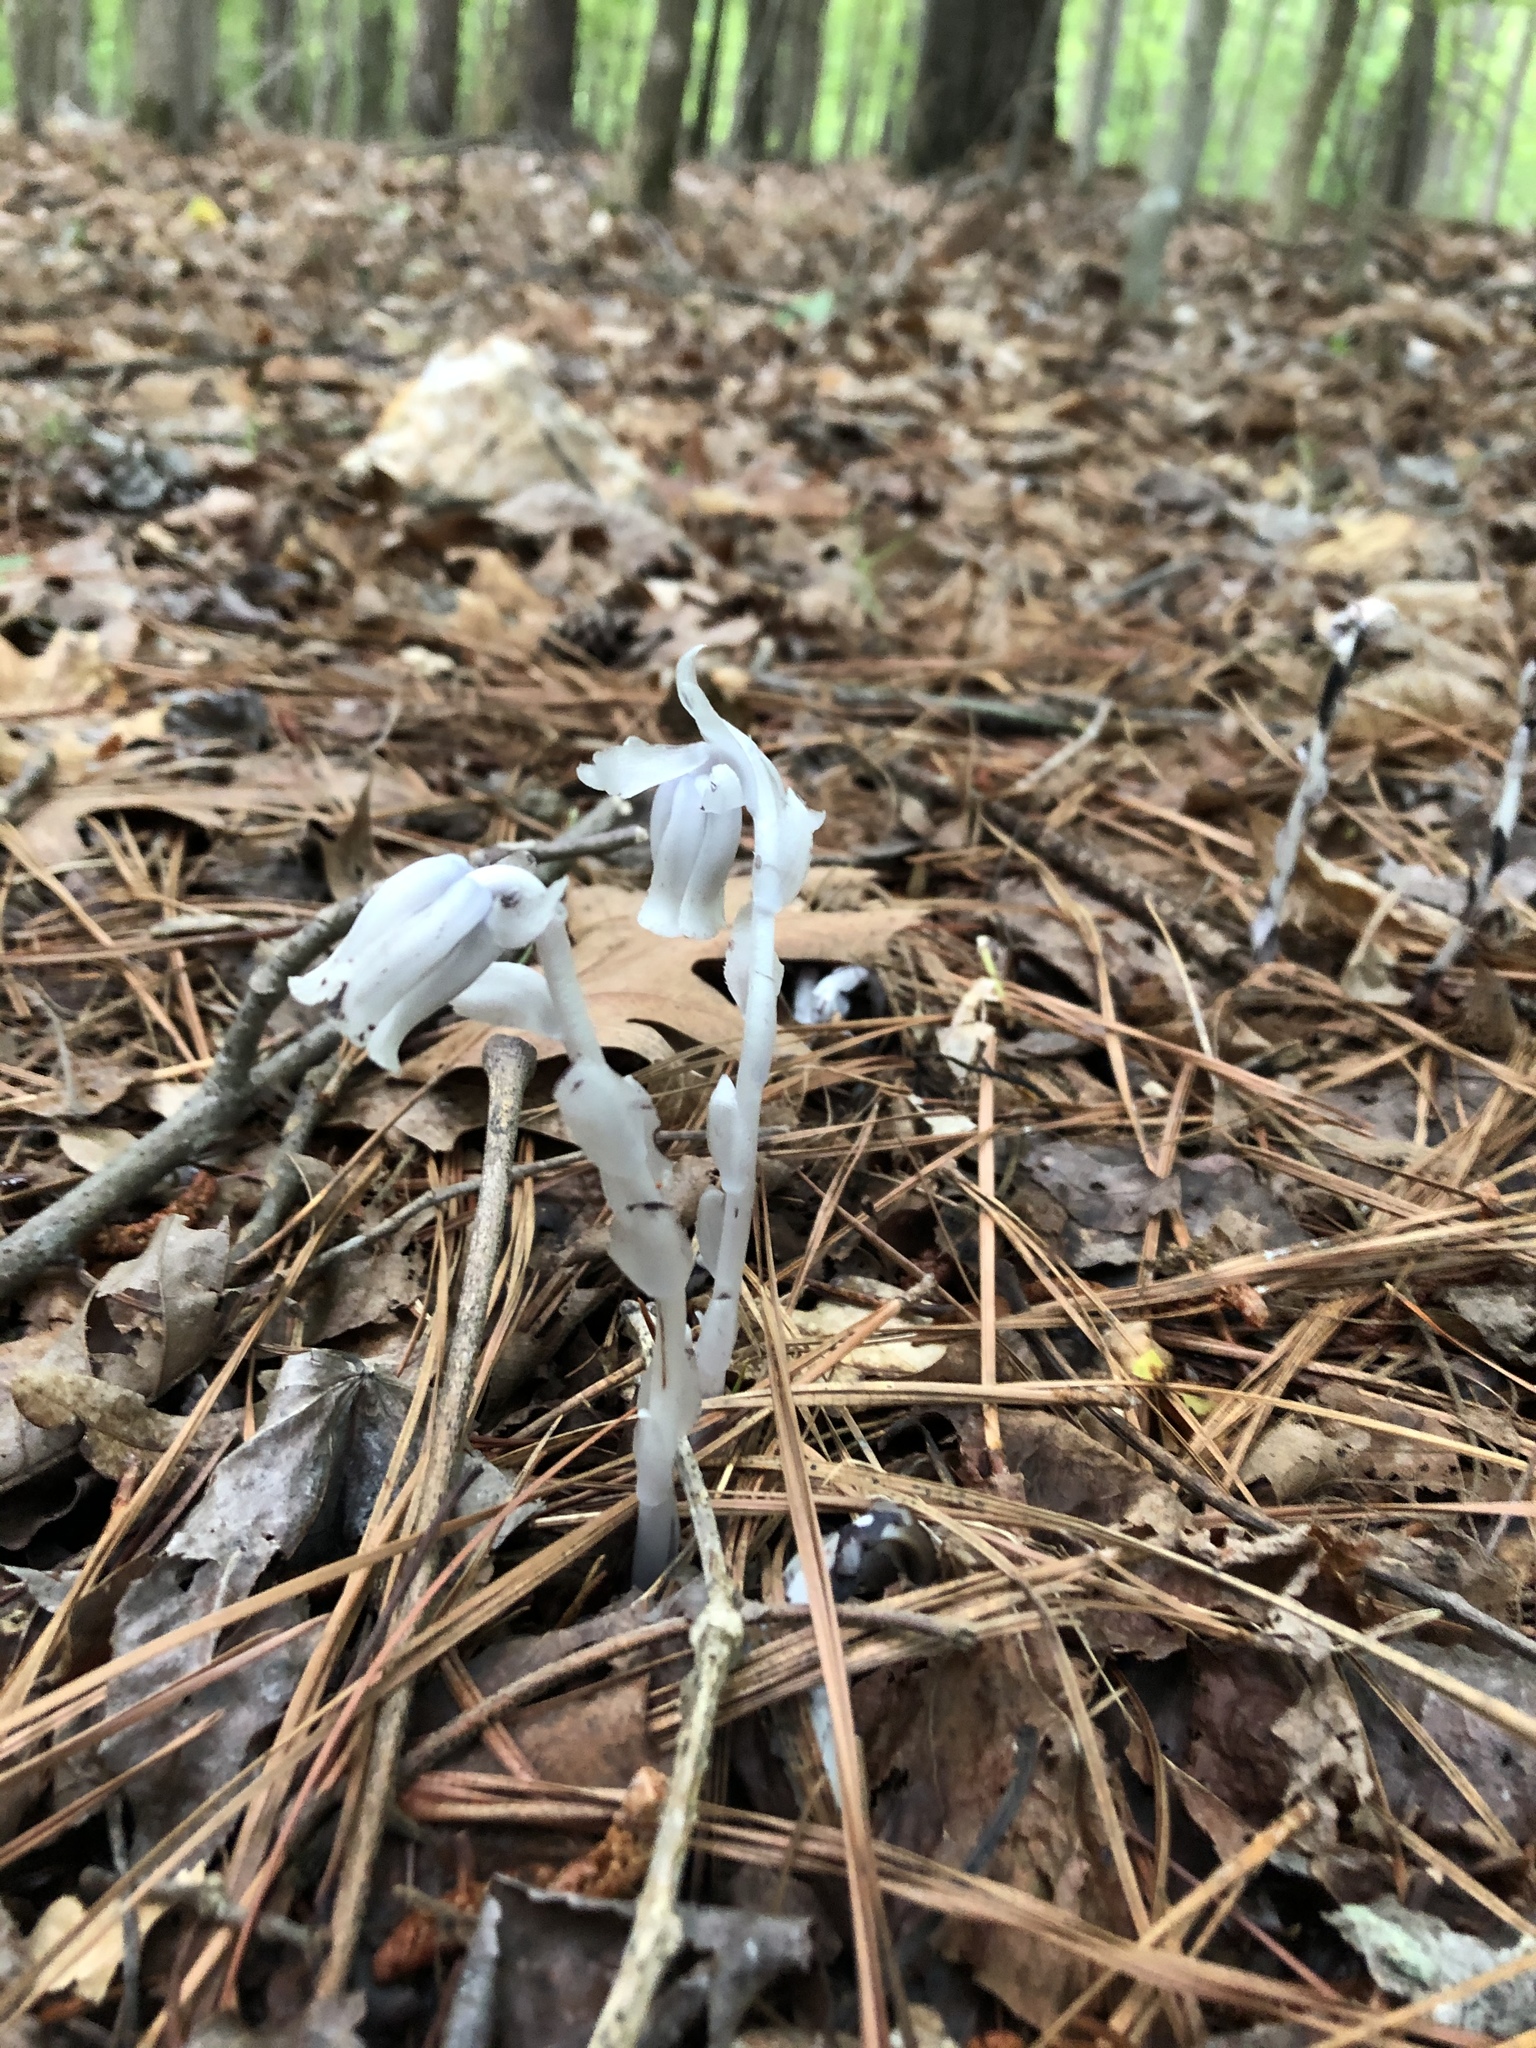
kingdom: Plantae
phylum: Tracheophyta
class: Magnoliopsida
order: Ericales
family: Ericaceae
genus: Monotropa
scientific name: Monotropa uniflora
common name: Convulsion root
